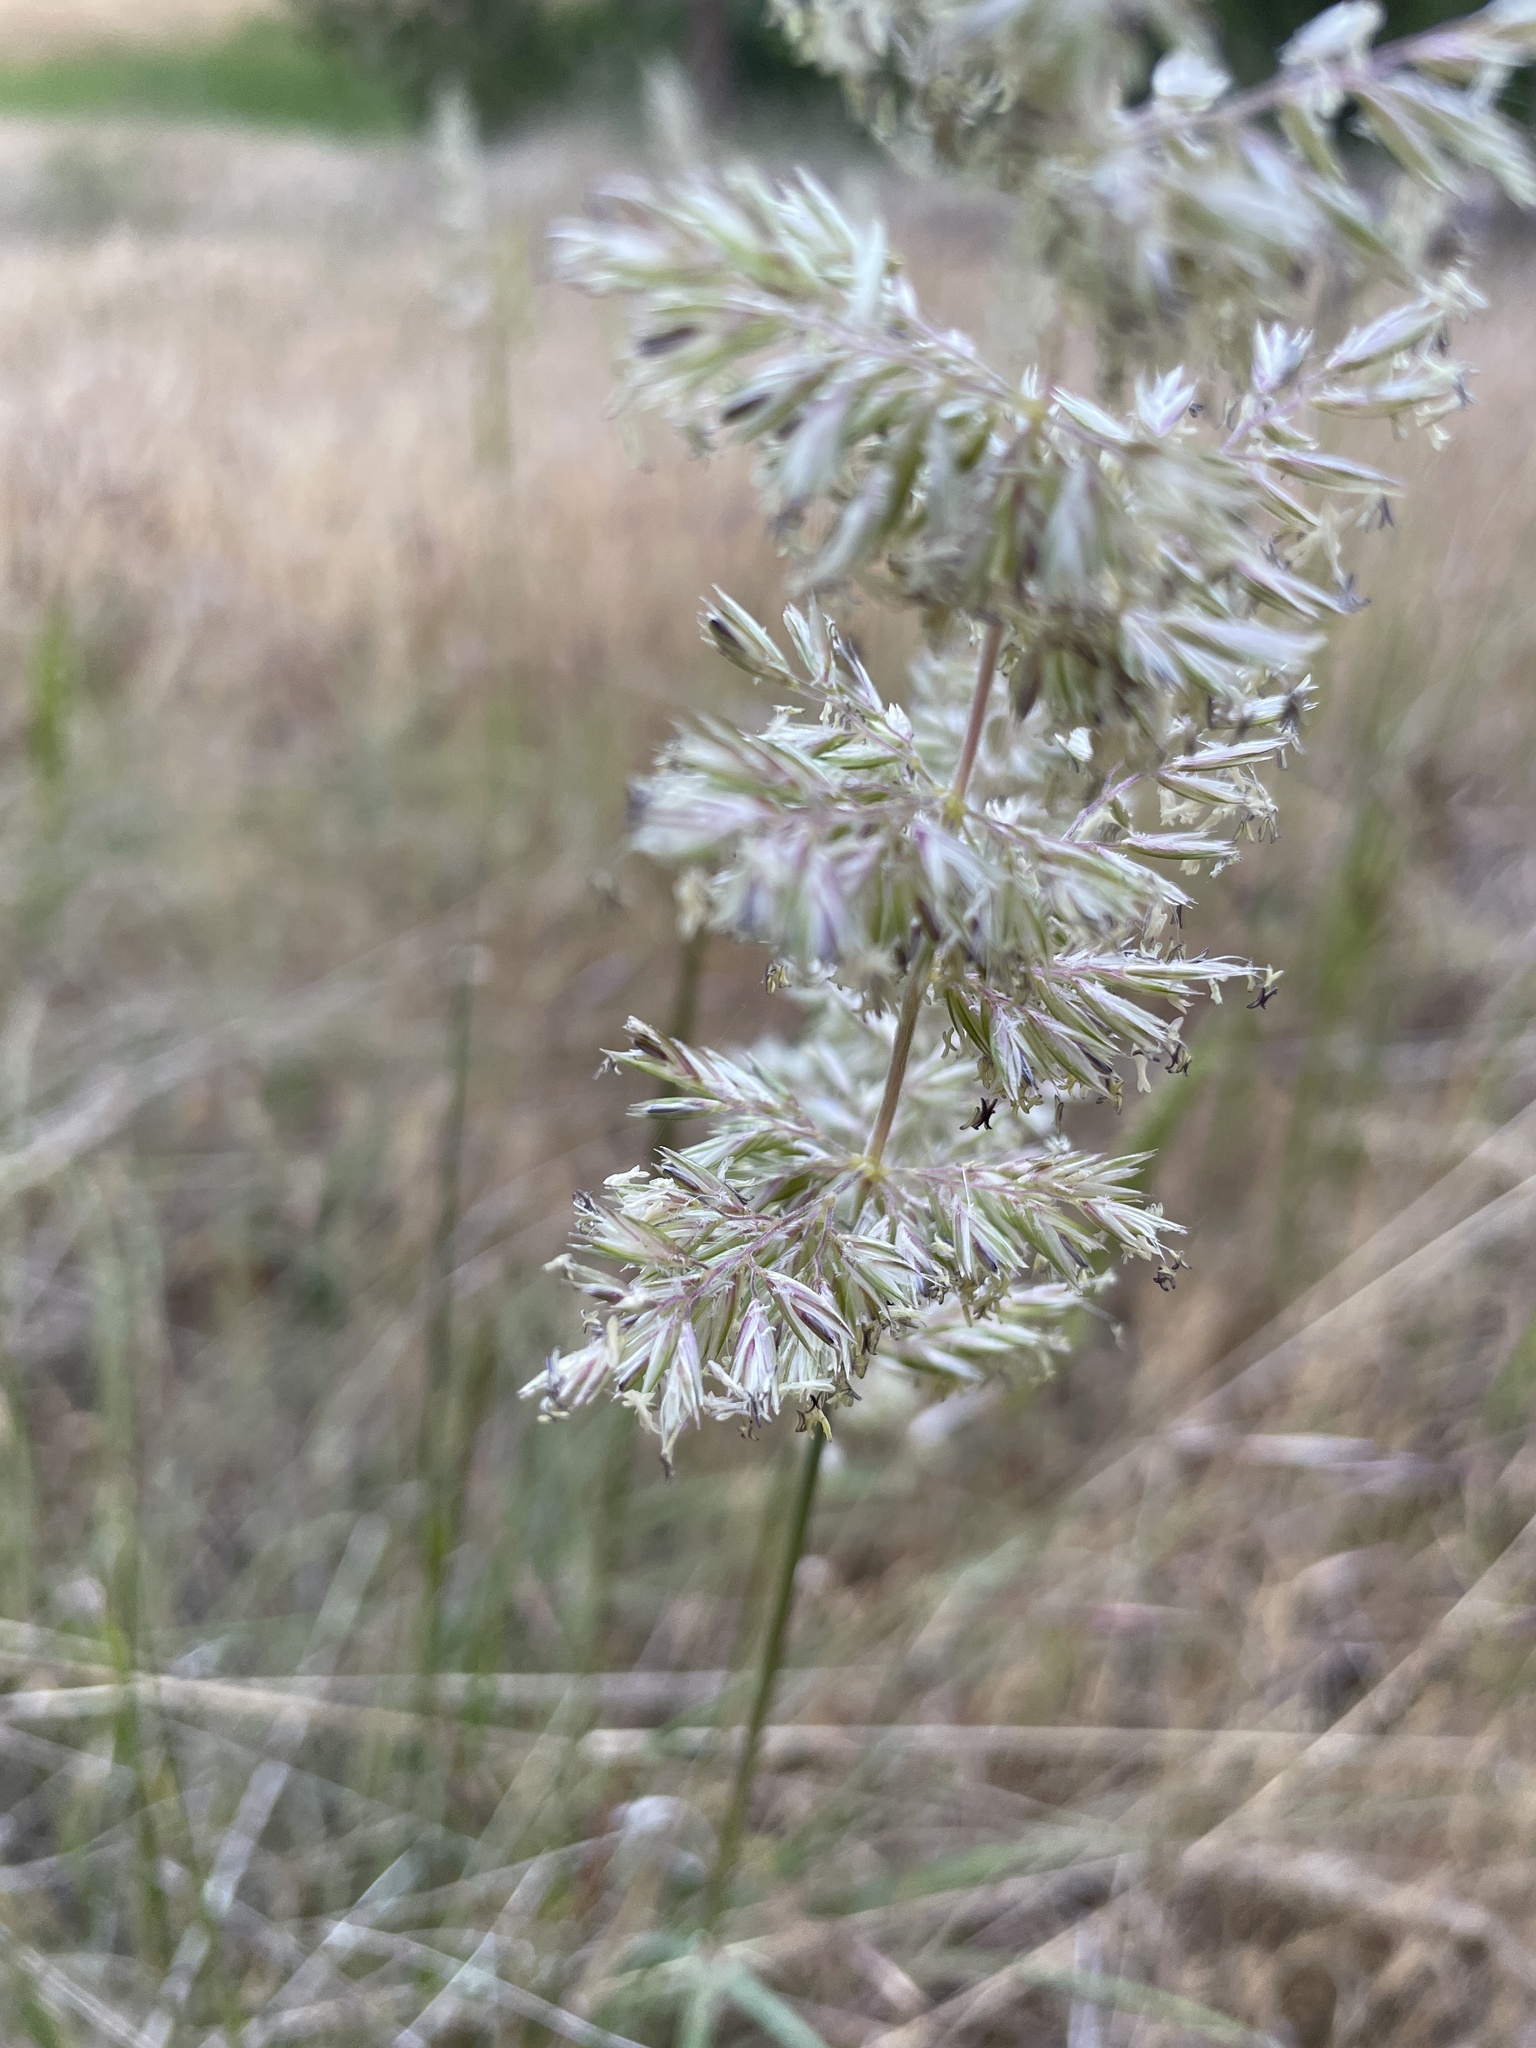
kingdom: Plantae
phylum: Tracheophyta
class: Liliopsida
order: Poales
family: Poaceae
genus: Koeleria
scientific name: Koeleria macrantha
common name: Crested hair-grass
